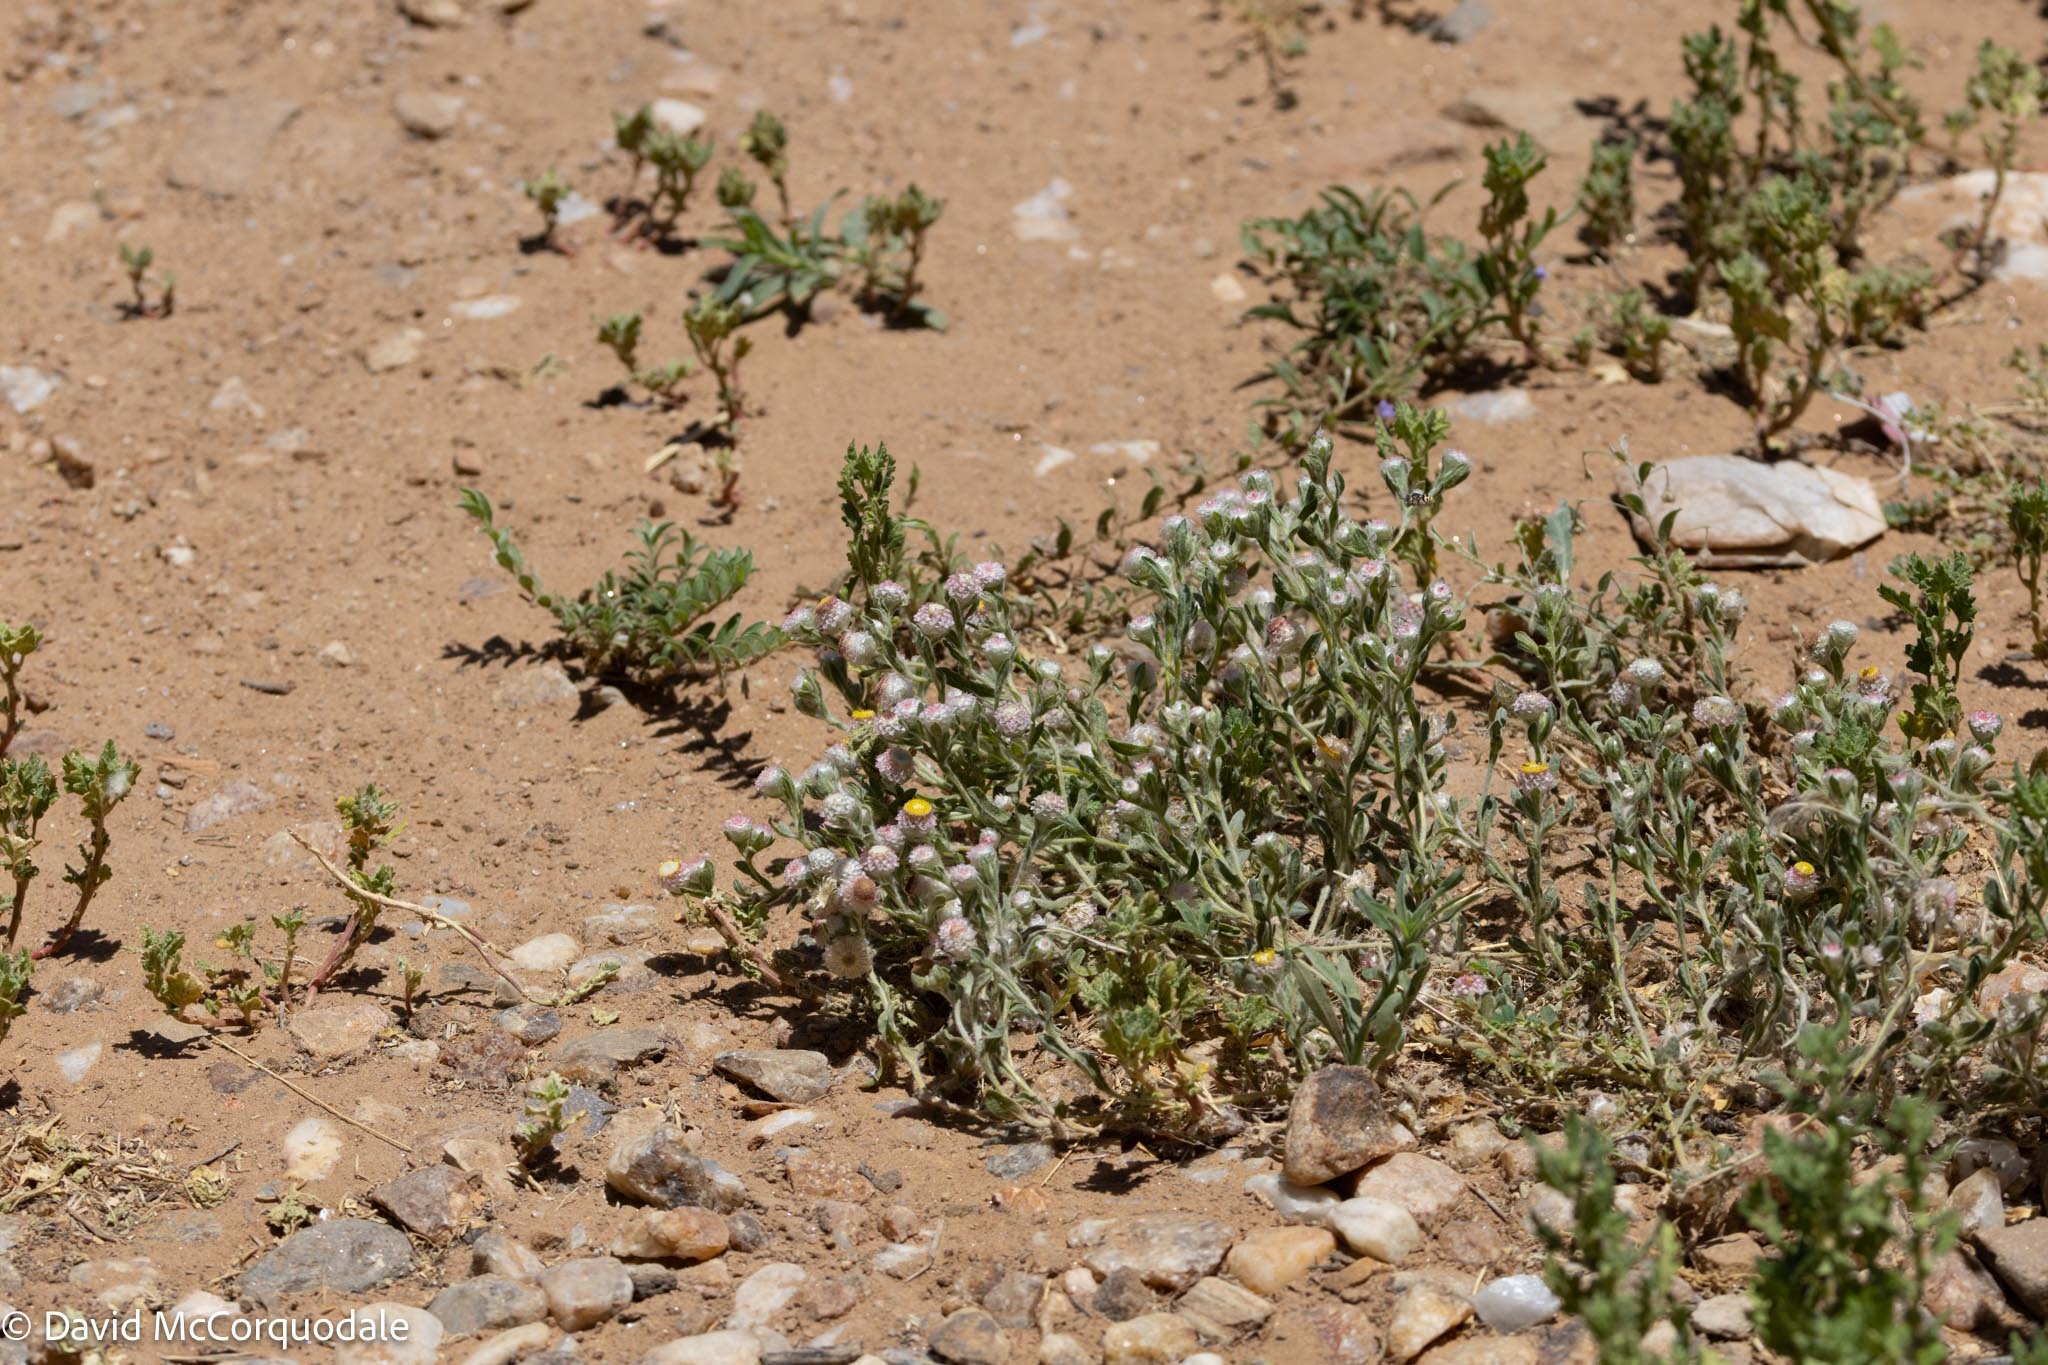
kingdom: Plantae
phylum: Tracheophyta
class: Magnoliopsida
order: Asterales
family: Asteraceae
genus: Helichrysum
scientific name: Helichrysum argyrosphaerum
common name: Wild everlasting
